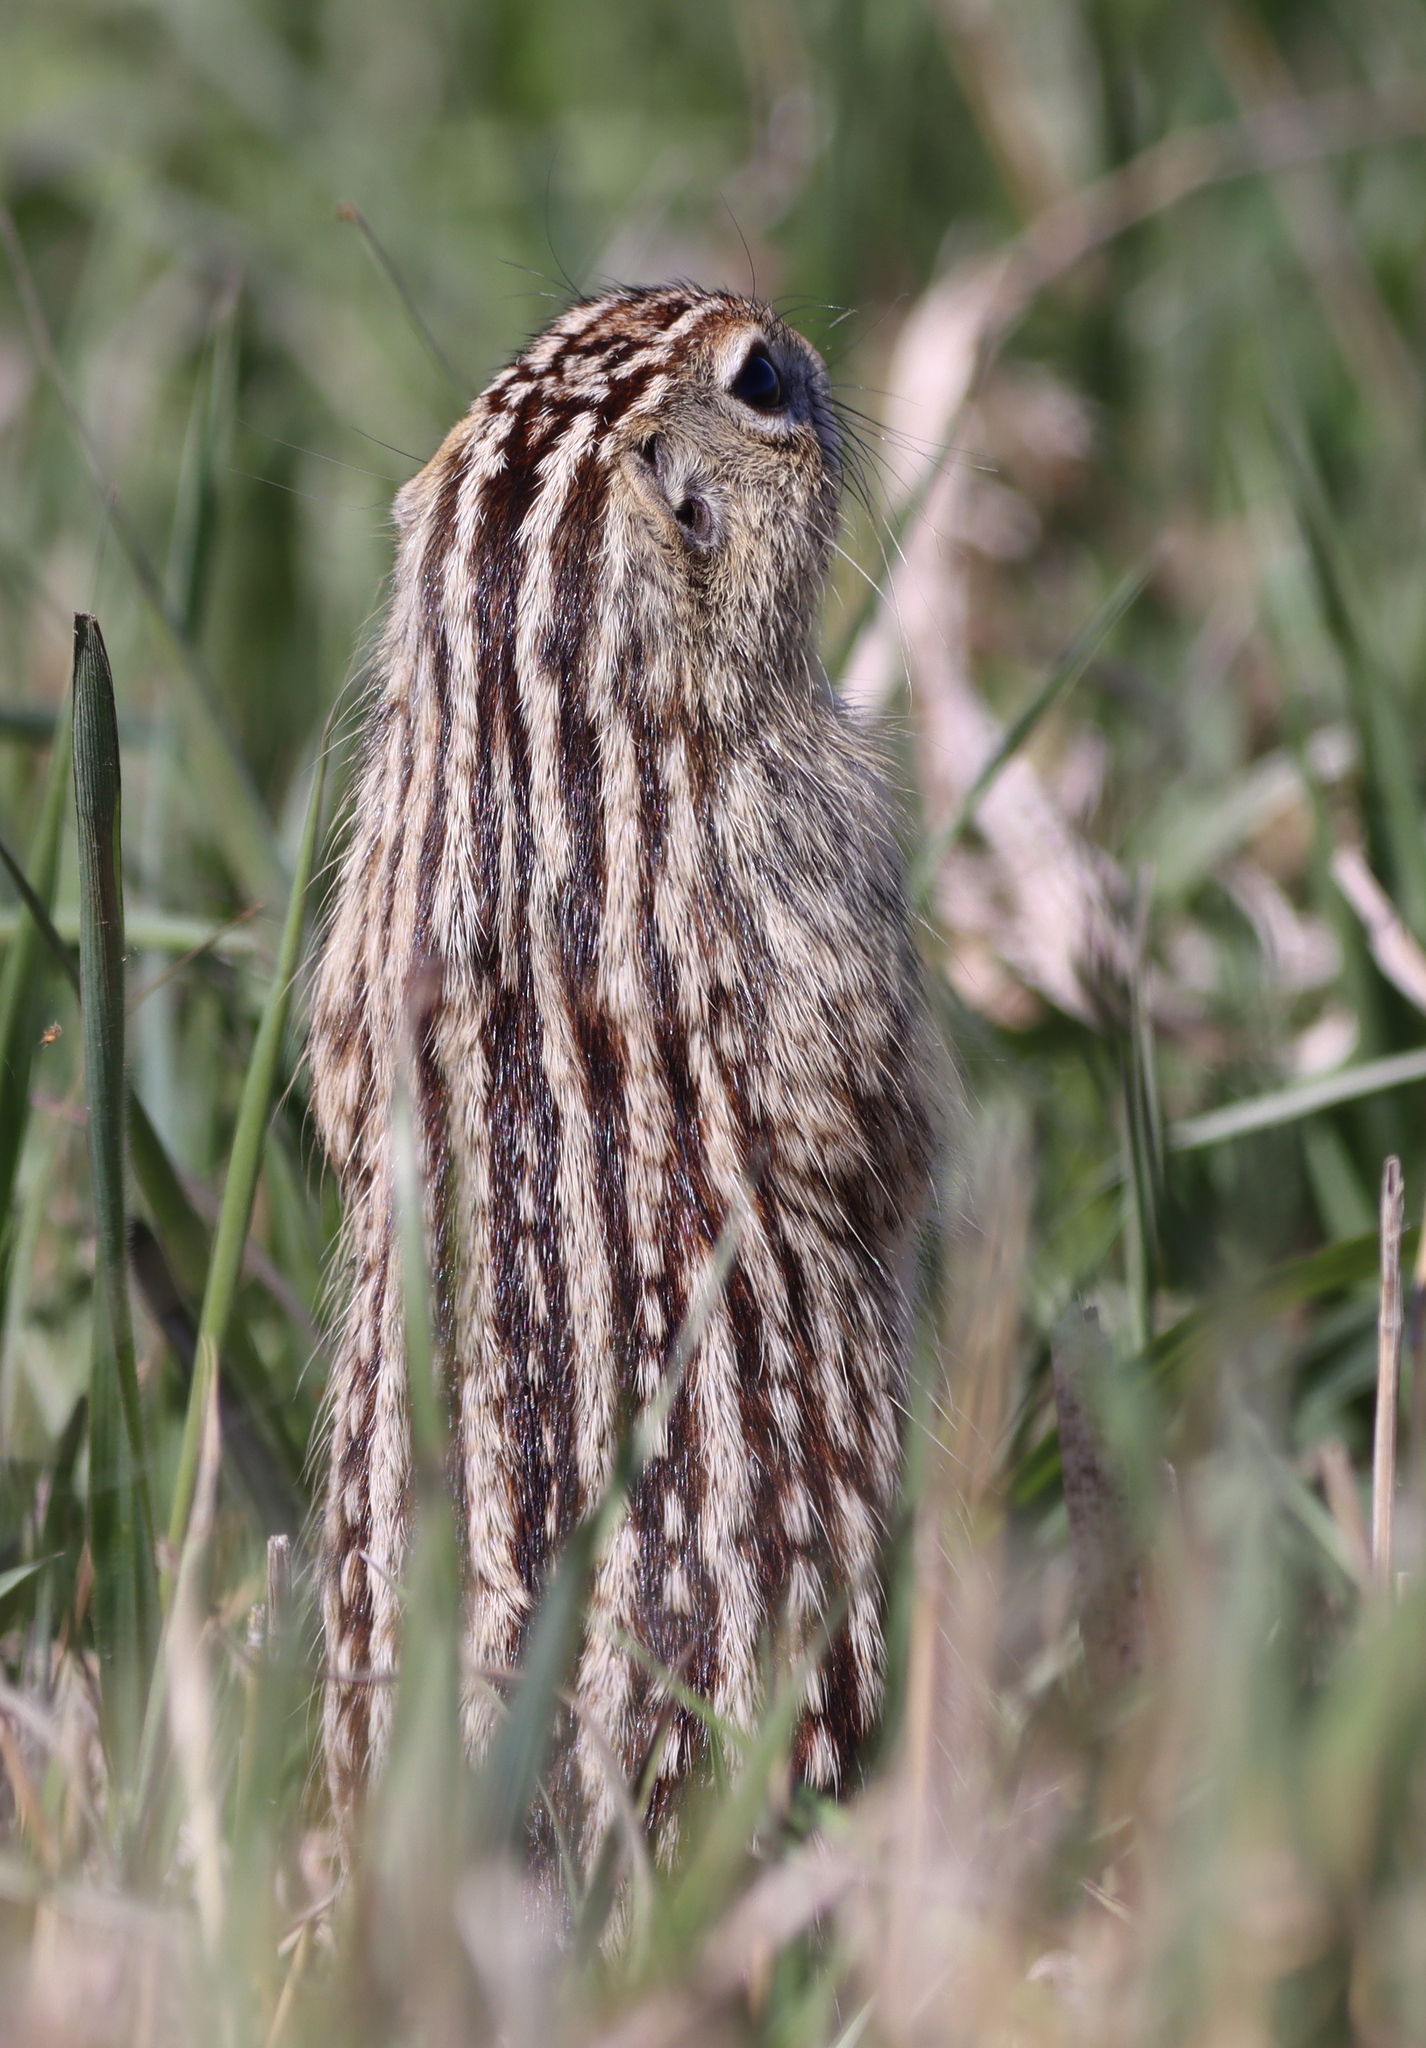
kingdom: Animalia
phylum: Chordata
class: Mammalia
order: Rodentia
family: Sciuridae
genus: Ictidomys
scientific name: Ictidomys tridecemlineatus
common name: Thirteen-lined ground squirrel
